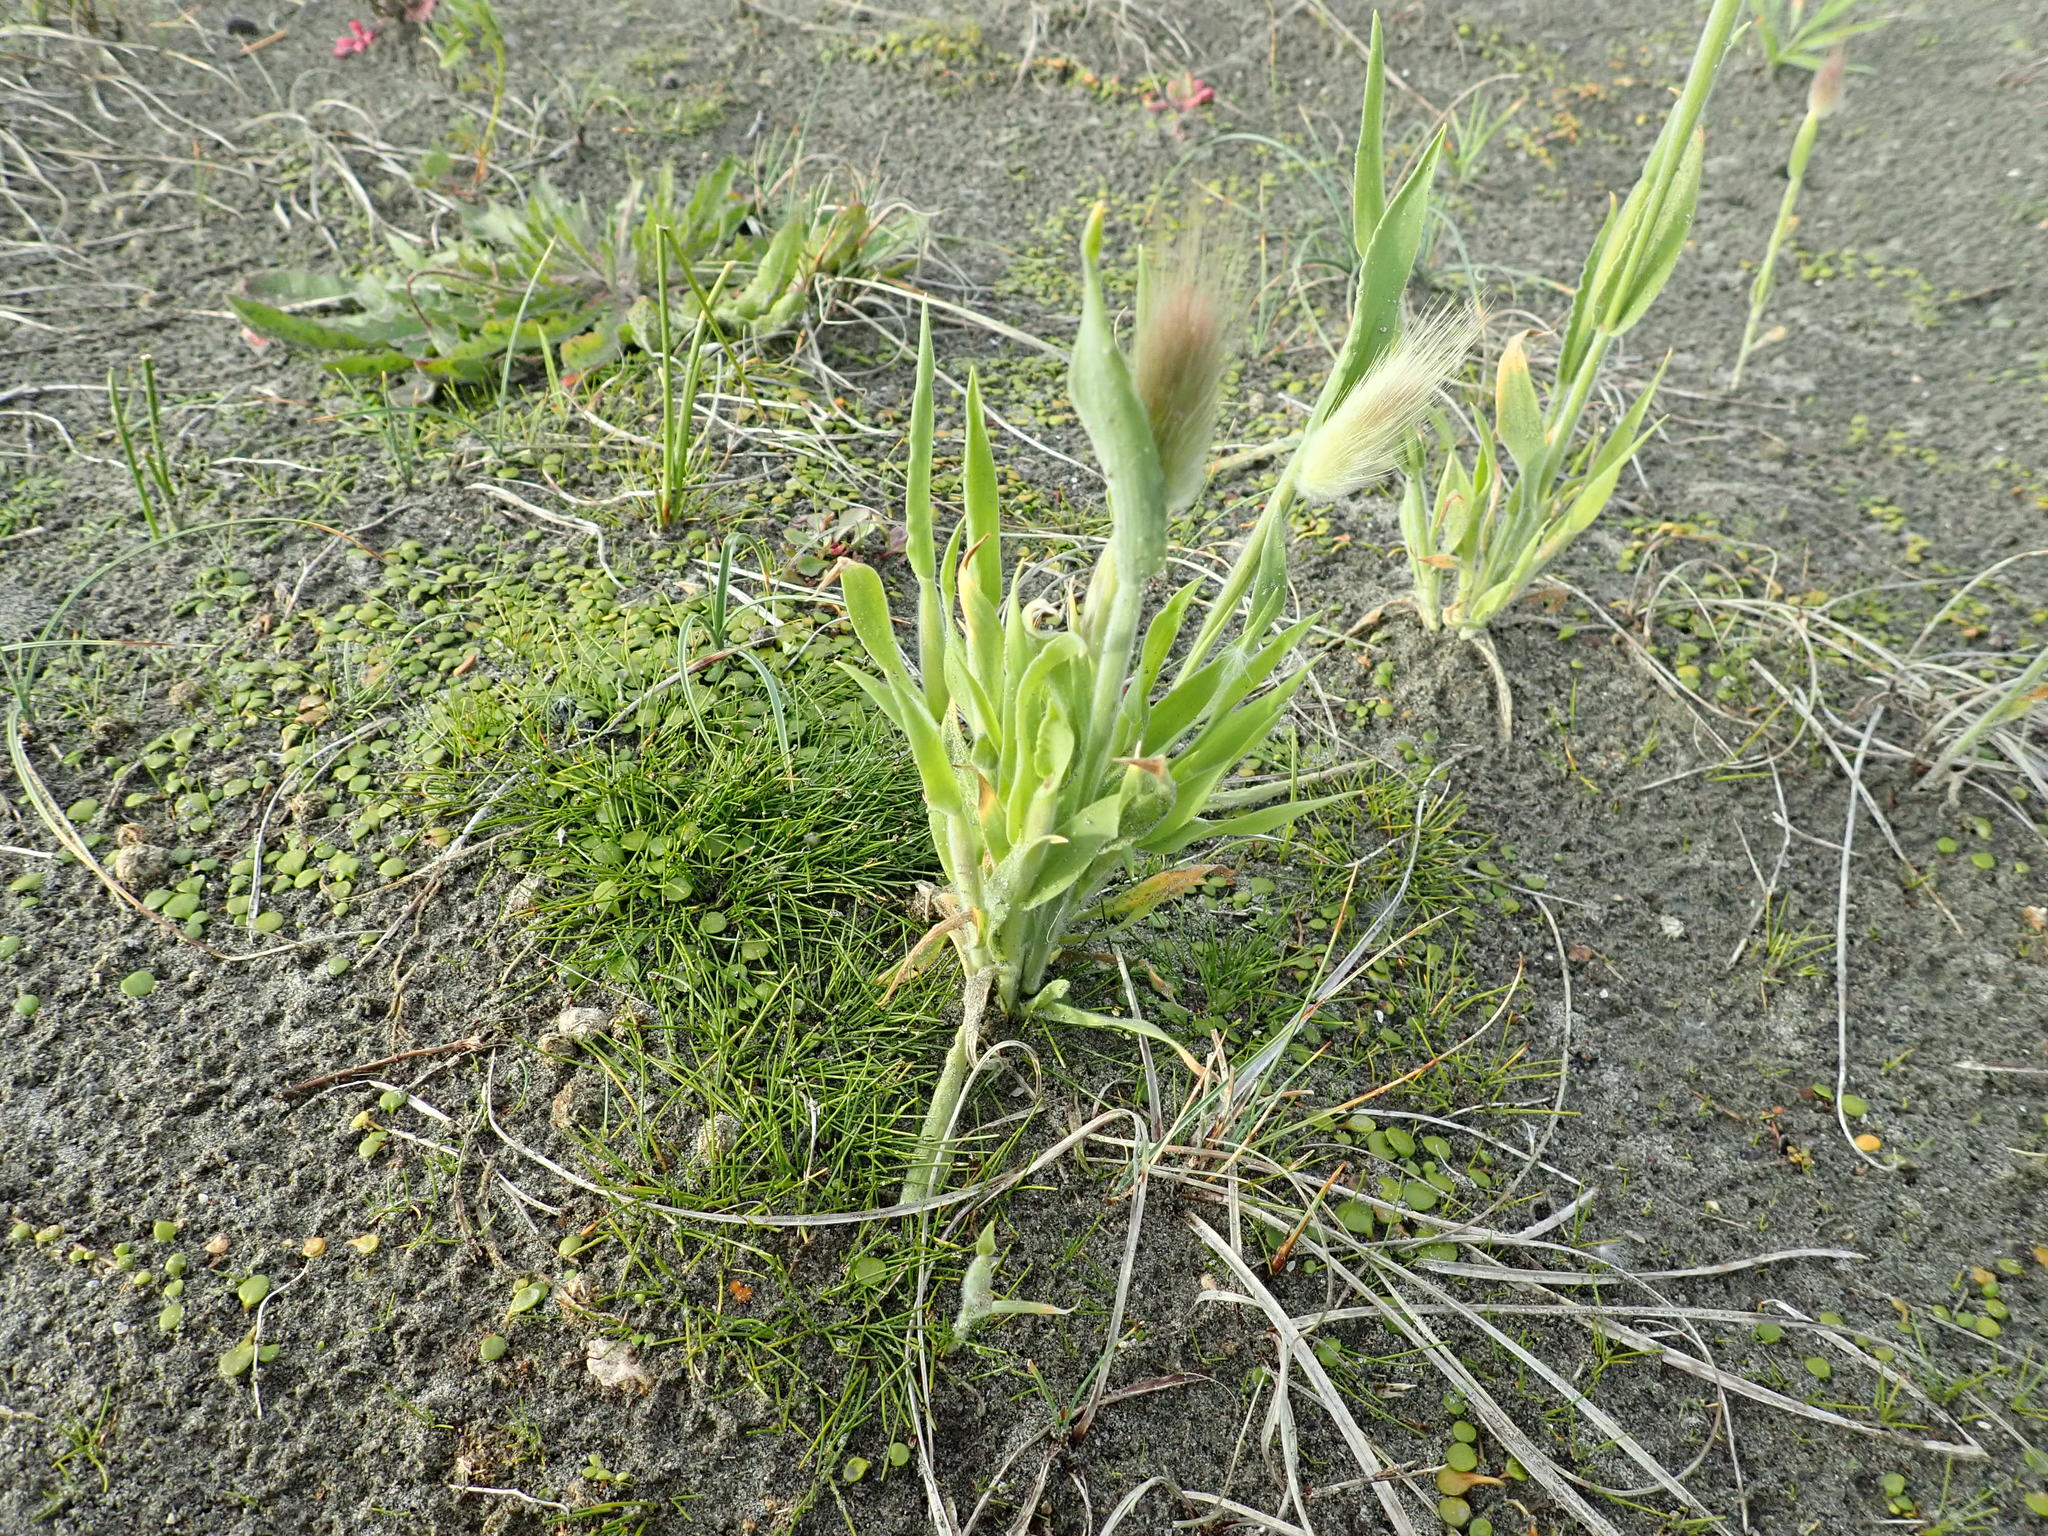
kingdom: Plantae
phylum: Tracheophyta
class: Liliopsida
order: Poales
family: Poaceae
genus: Lagurus
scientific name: Lagurus ovatus
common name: Hare's-tail
